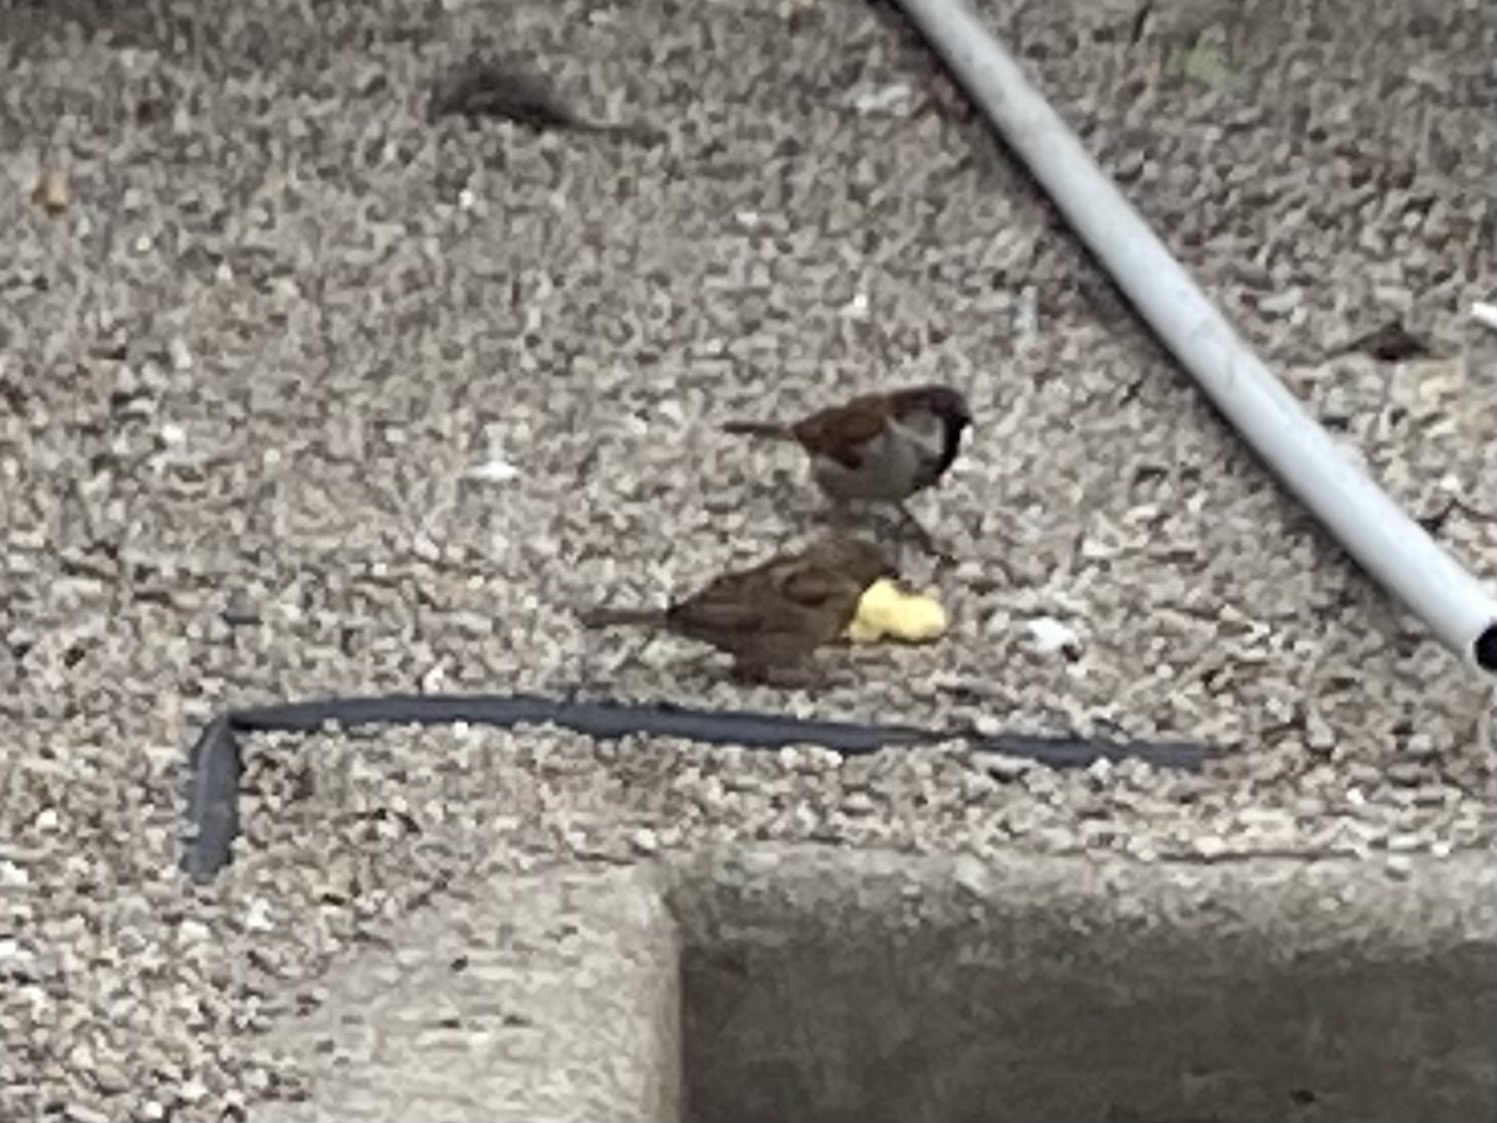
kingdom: Animalia
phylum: Chordata
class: Aves
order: Passeriformes
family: Passeridae
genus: Passer
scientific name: Passer domesticus
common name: House sparrow
